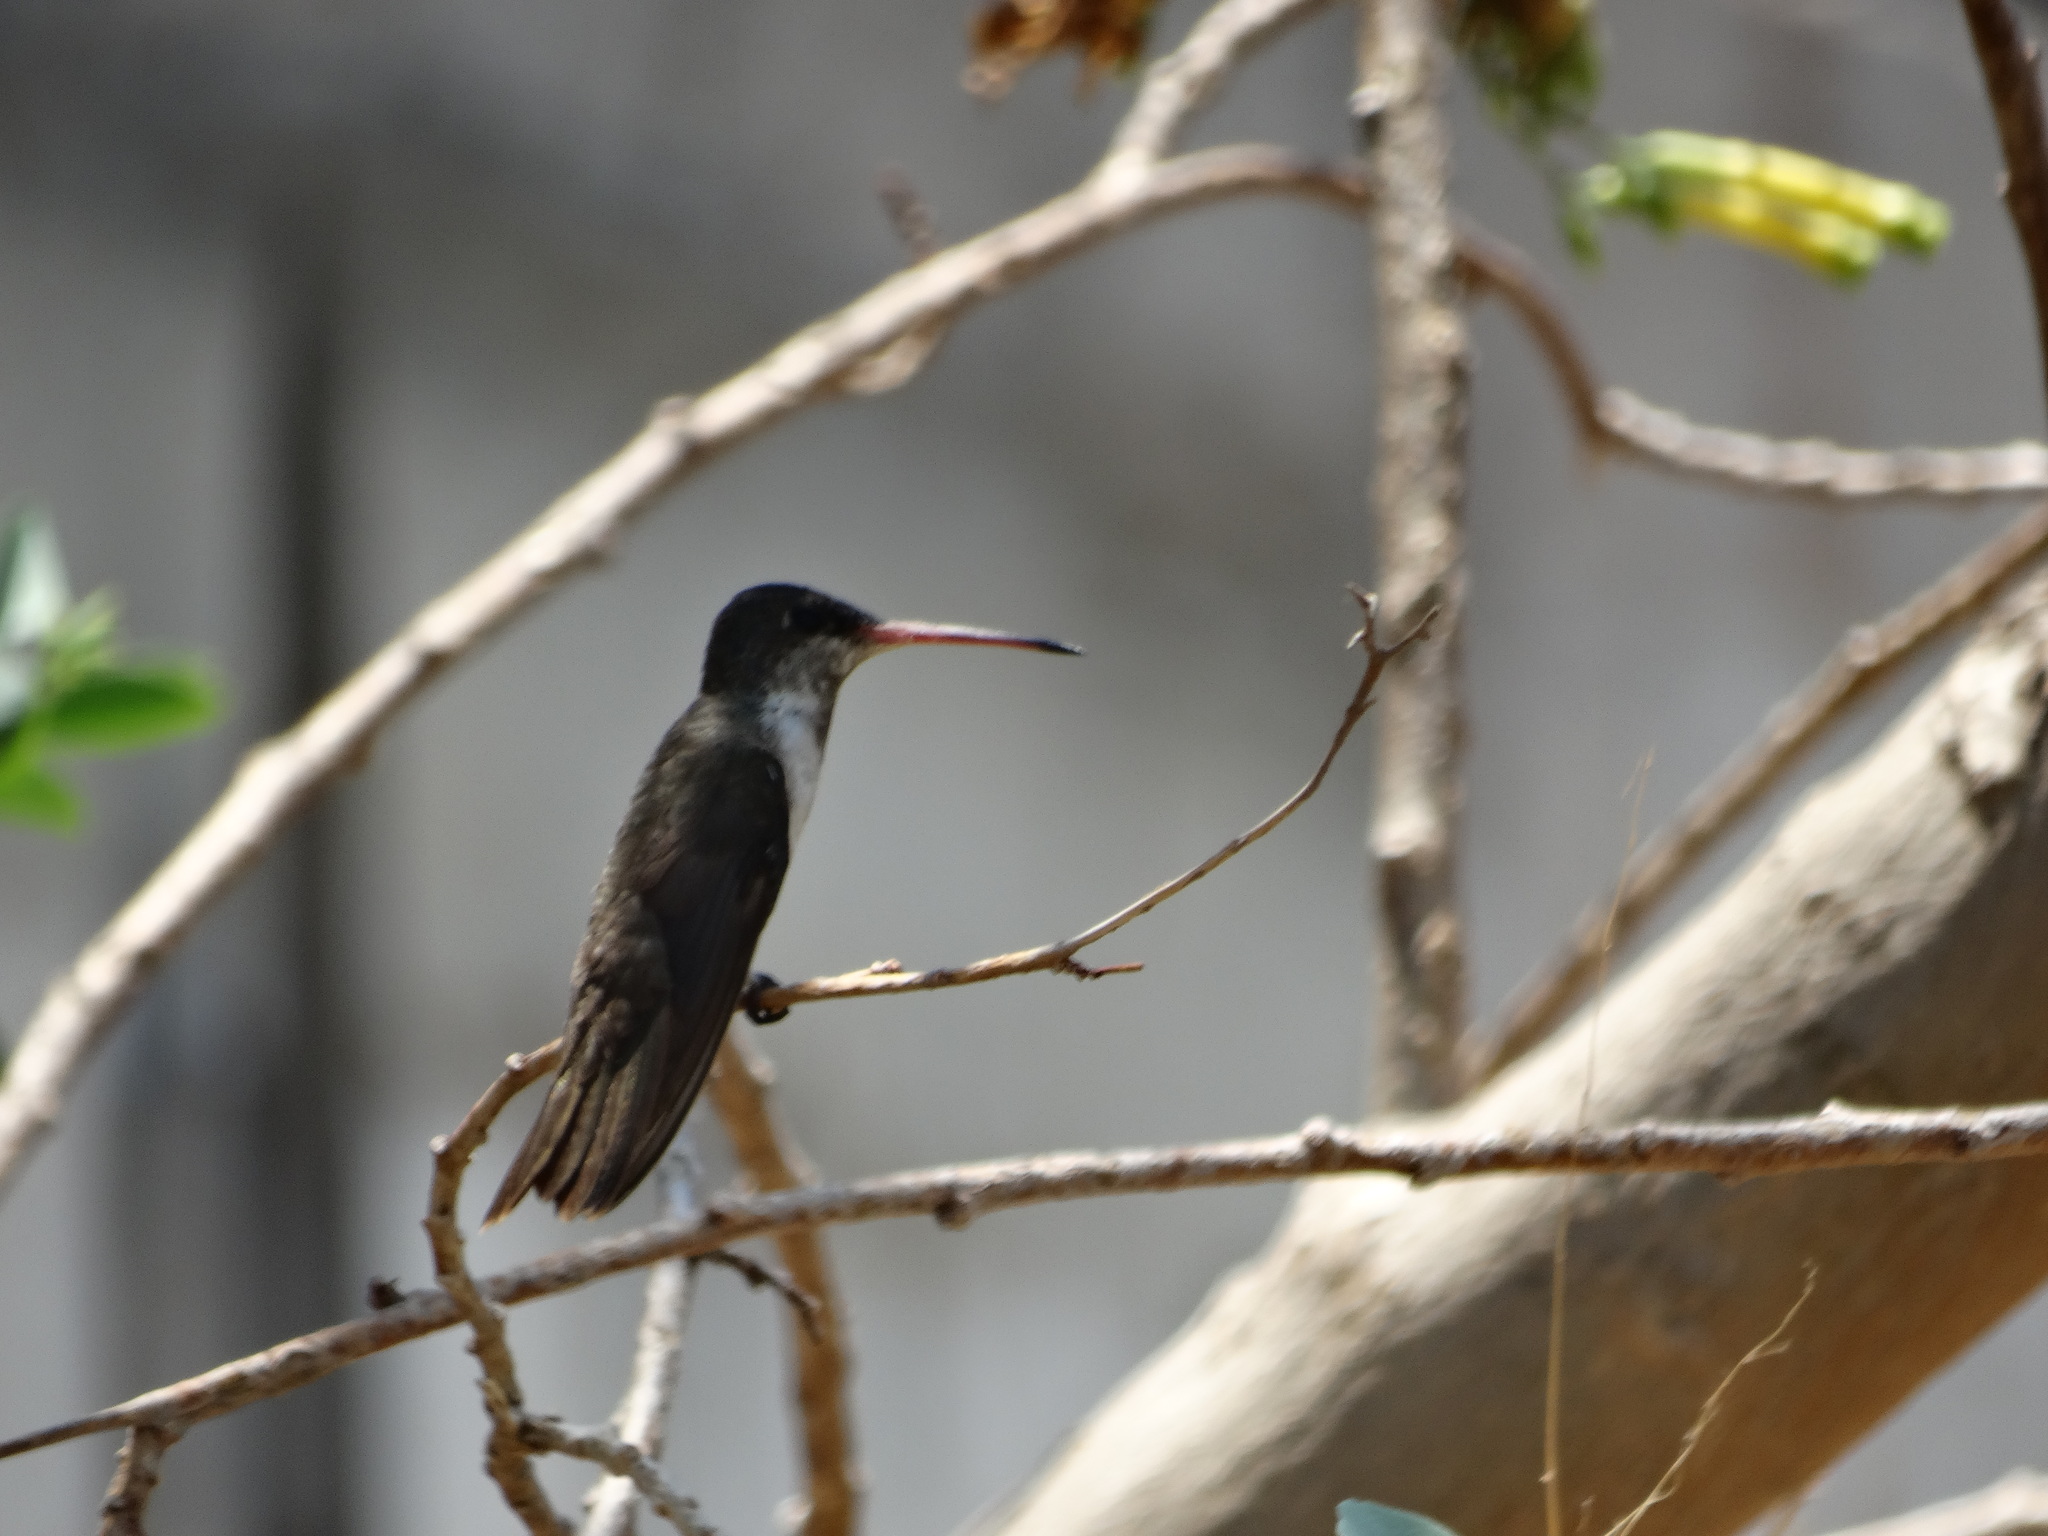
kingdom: Animalia
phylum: Chordata
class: Aves
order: Apodiformes
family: Trochilidae
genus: Leucolia
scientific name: Leucolia violiceps
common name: Violet-crowned hummingbird
